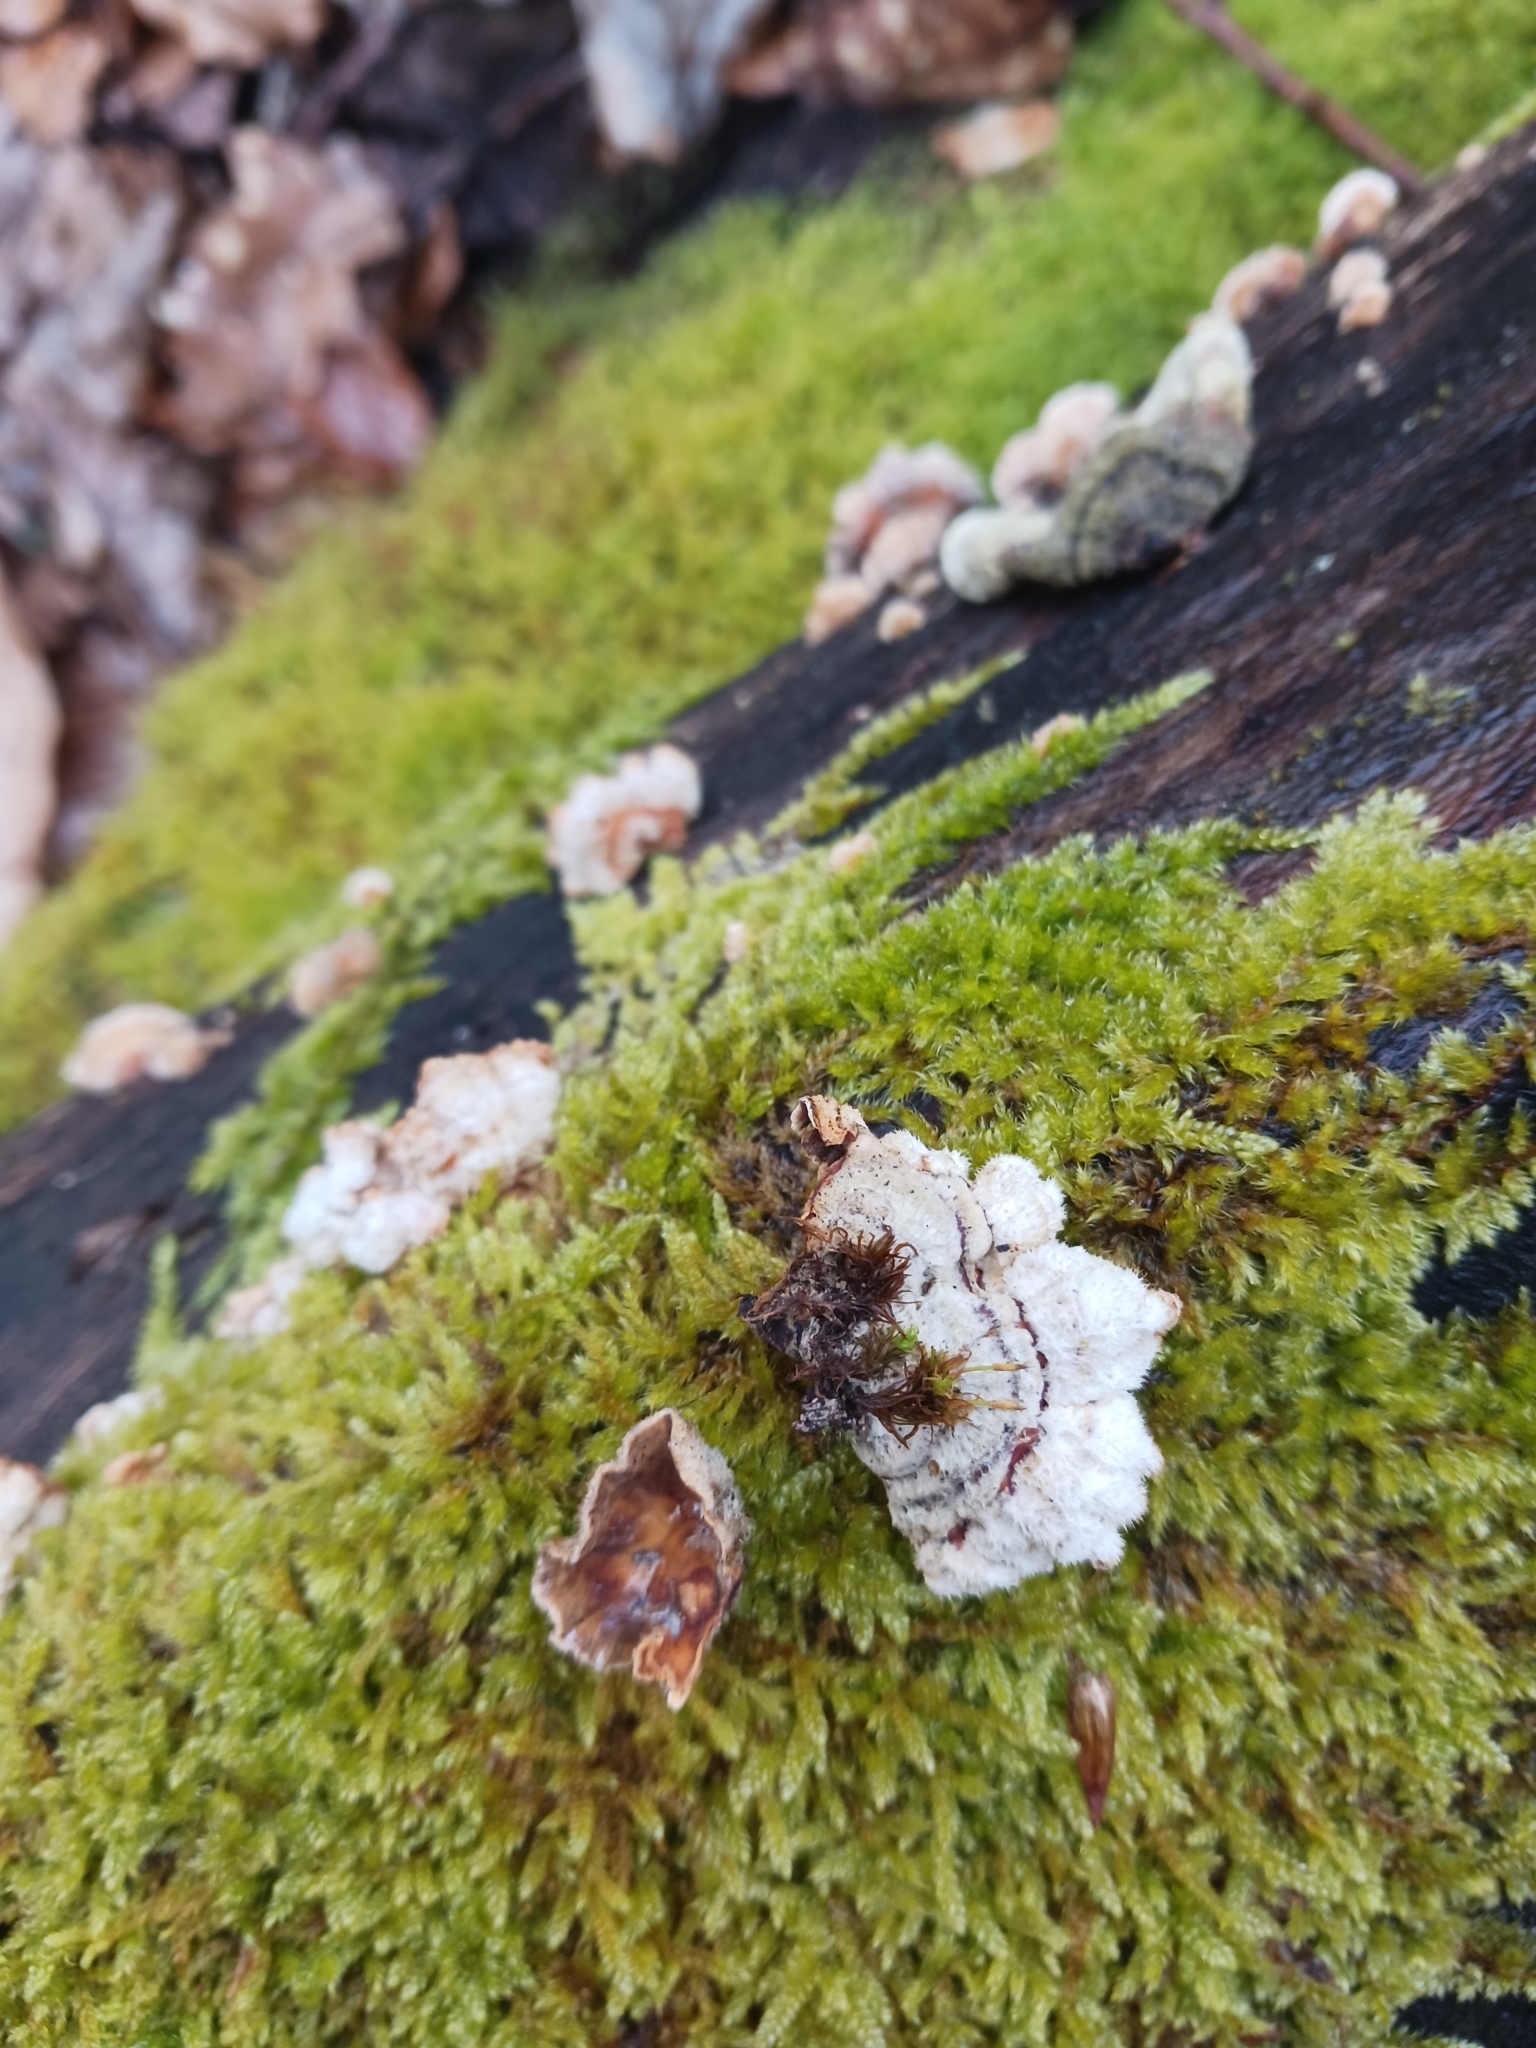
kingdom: Fungi
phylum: Basidiomycota
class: Agaricomycetes
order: Russulales
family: Stereaceae
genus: Stereum
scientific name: Stereum hirsutum
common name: Hairy curtain crust
